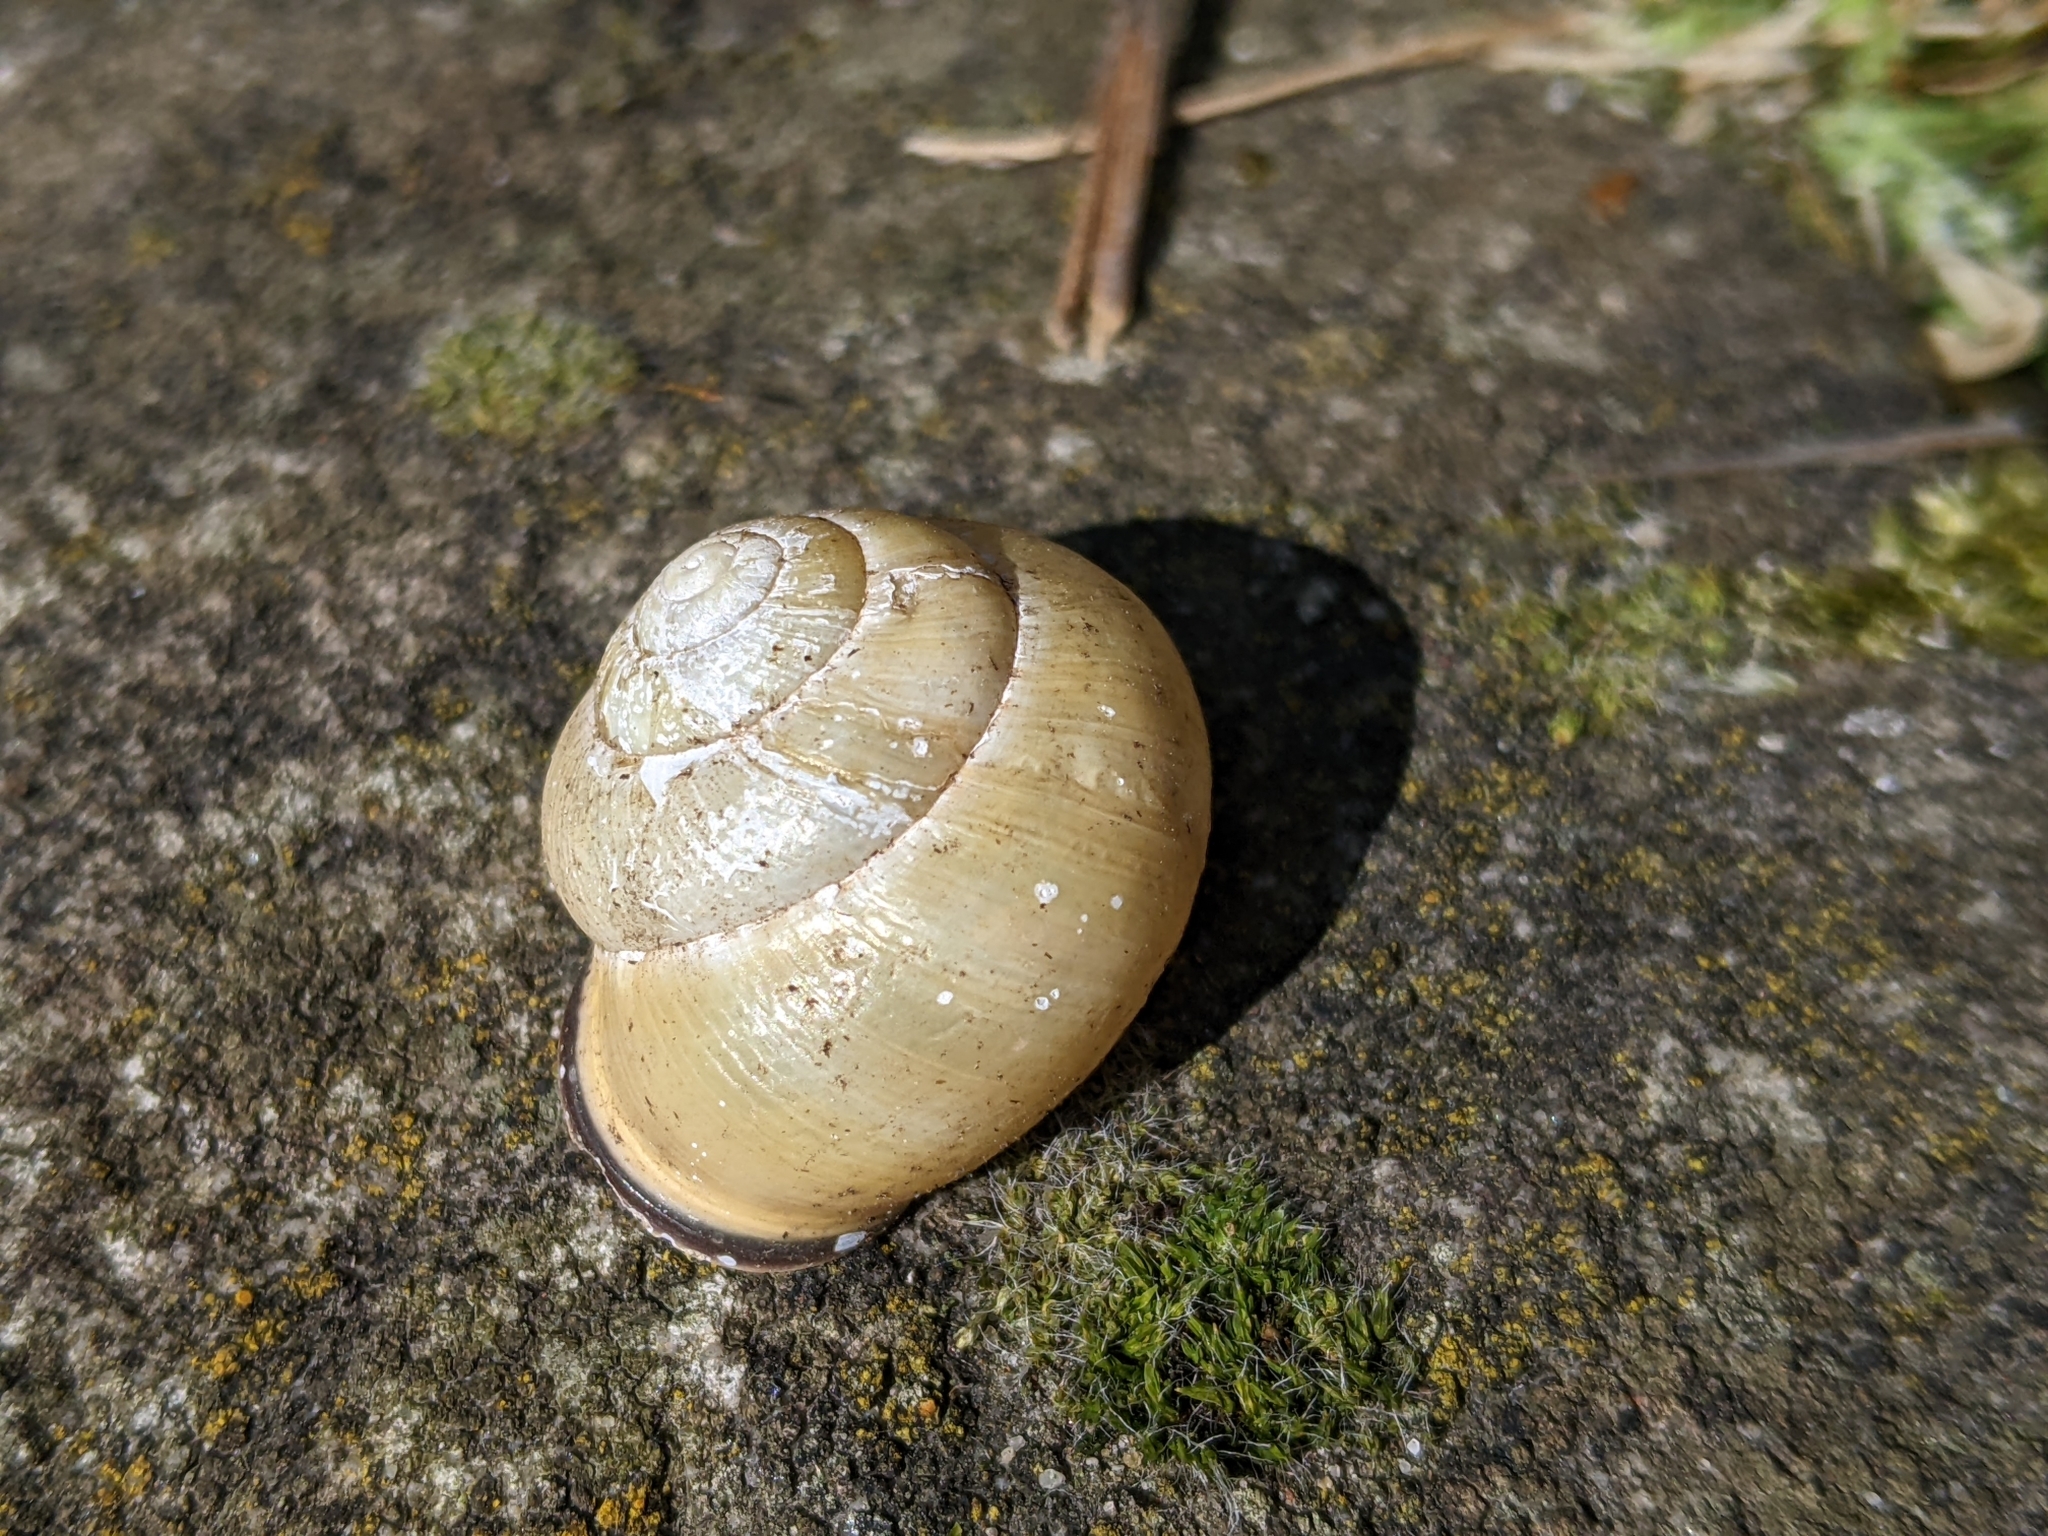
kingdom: Animalia
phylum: Mollusca
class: Gastropoda
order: Stylommatophora
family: Helicidae
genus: Cepaea
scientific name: Cepaea nemoralis
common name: Grovesnail
